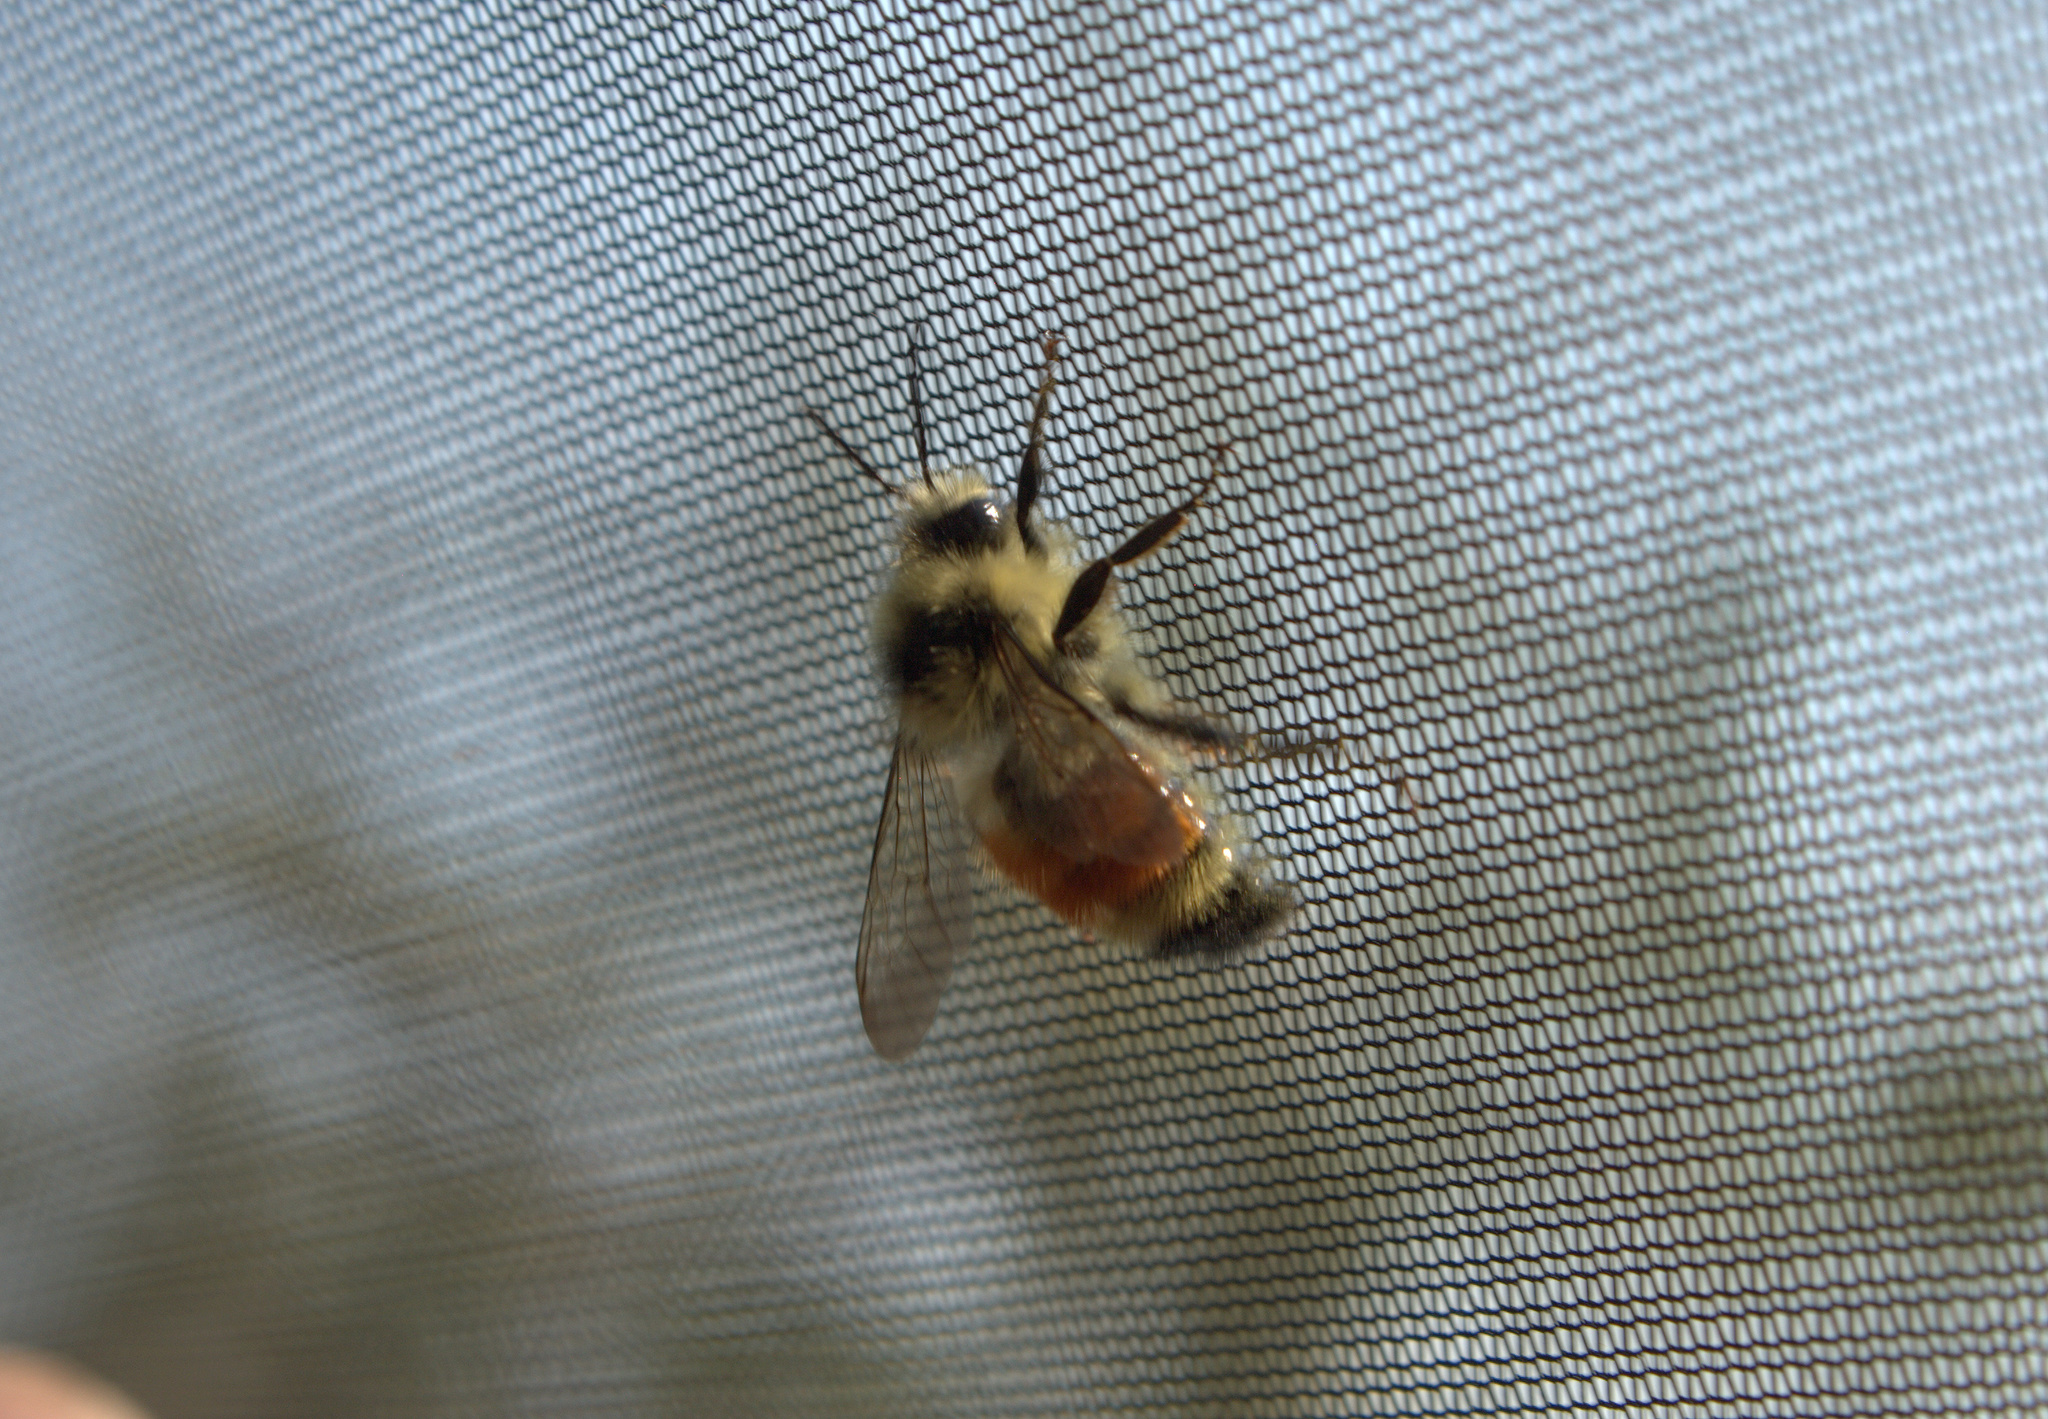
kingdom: Animalia
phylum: Arthropoda
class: Insecta
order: Hymenoptera
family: Apidae
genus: Bombus
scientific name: Bombus ternarius
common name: Tri-colored bumble bee
